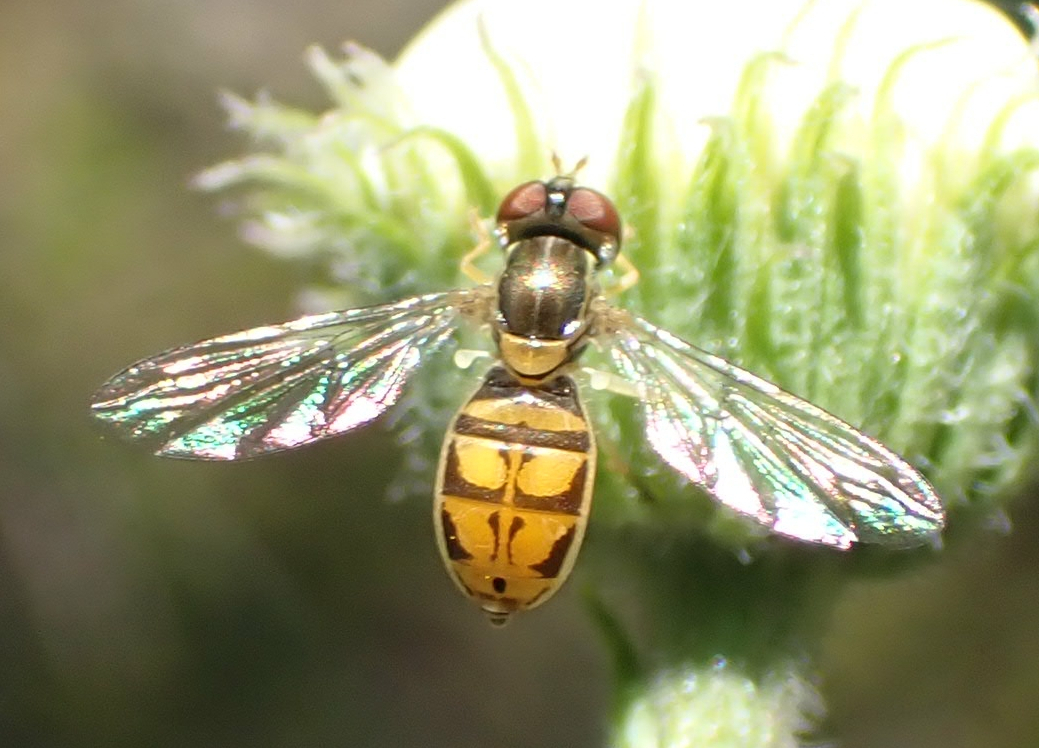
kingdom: Animalia
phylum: Arthropoda
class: Insecta
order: Diptera
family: Syrphidae
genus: Toxomerus
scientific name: Toxomerus marginatus
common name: Syrphid fly
